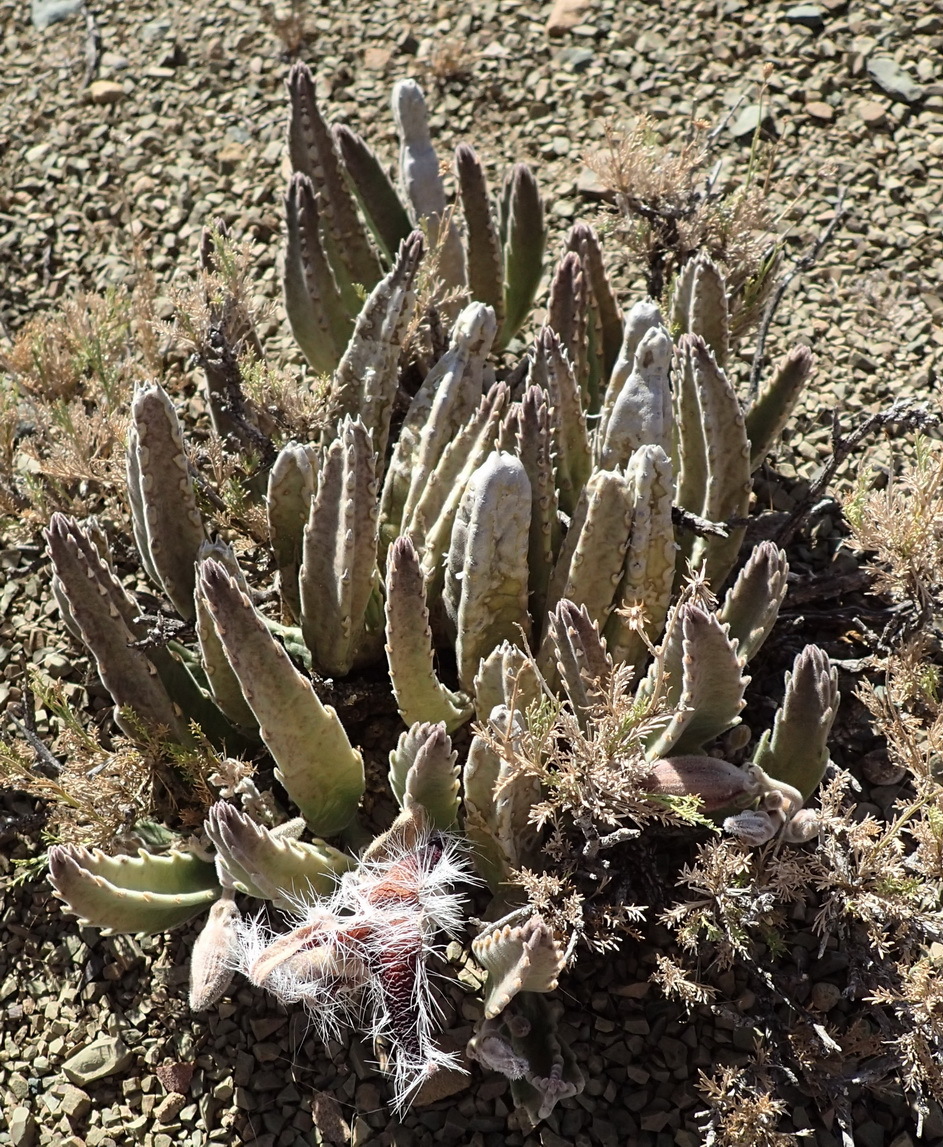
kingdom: Plantae
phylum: Tracheophyta
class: Magnoliopsida
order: Gentianales
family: Apocynaceae
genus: Stapelia
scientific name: Stapelia grandiflora
